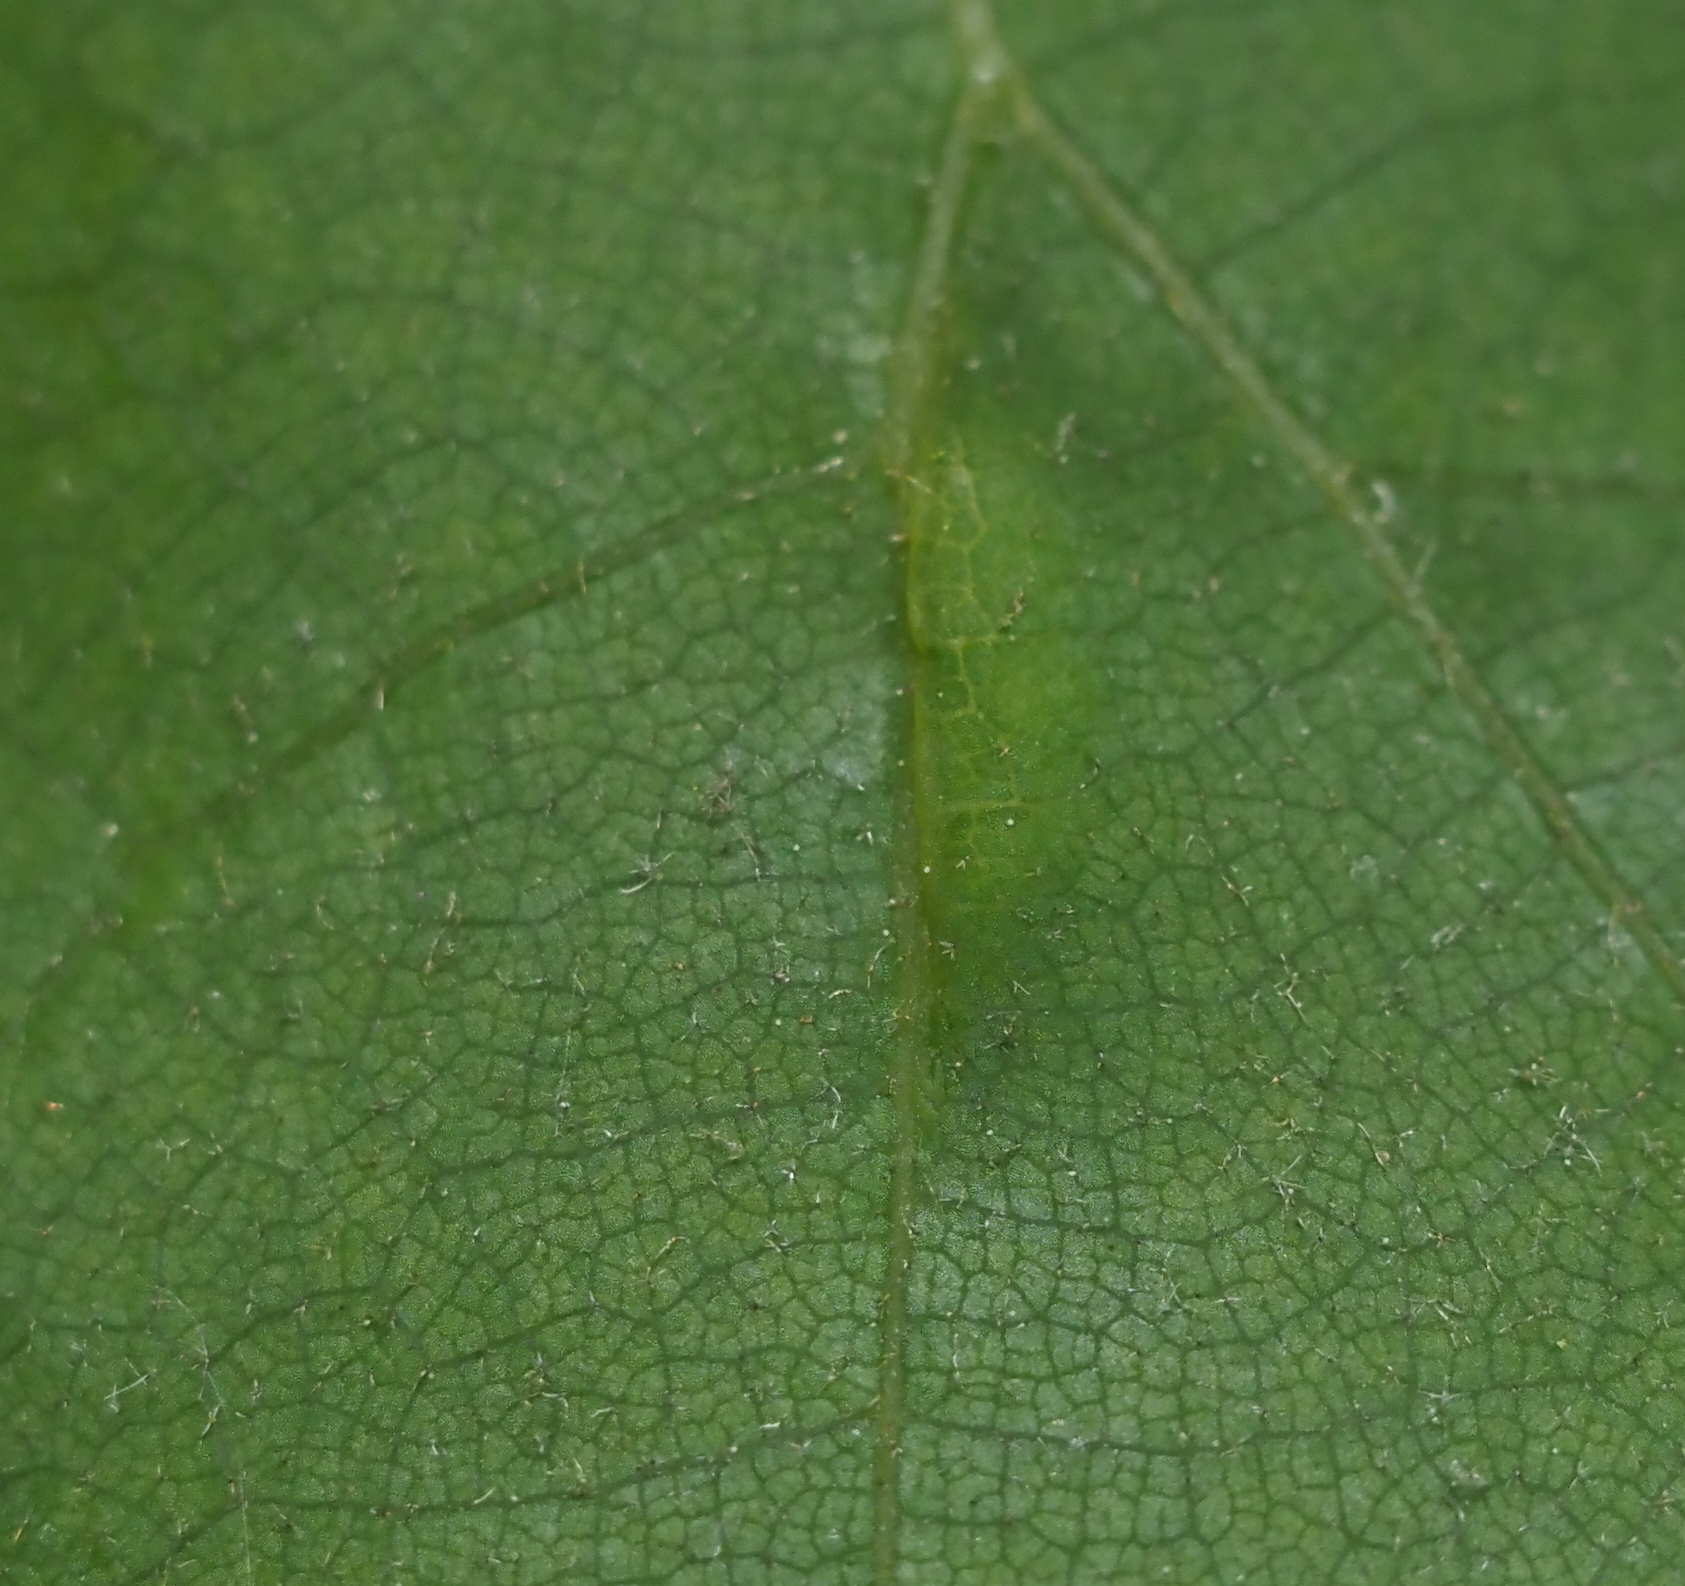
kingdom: Animalia
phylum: Arthropoda
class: Insecta
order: Diptera
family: Cecidomyiidae
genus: Macrodiplosis
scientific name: Macrodiplosis majalis
